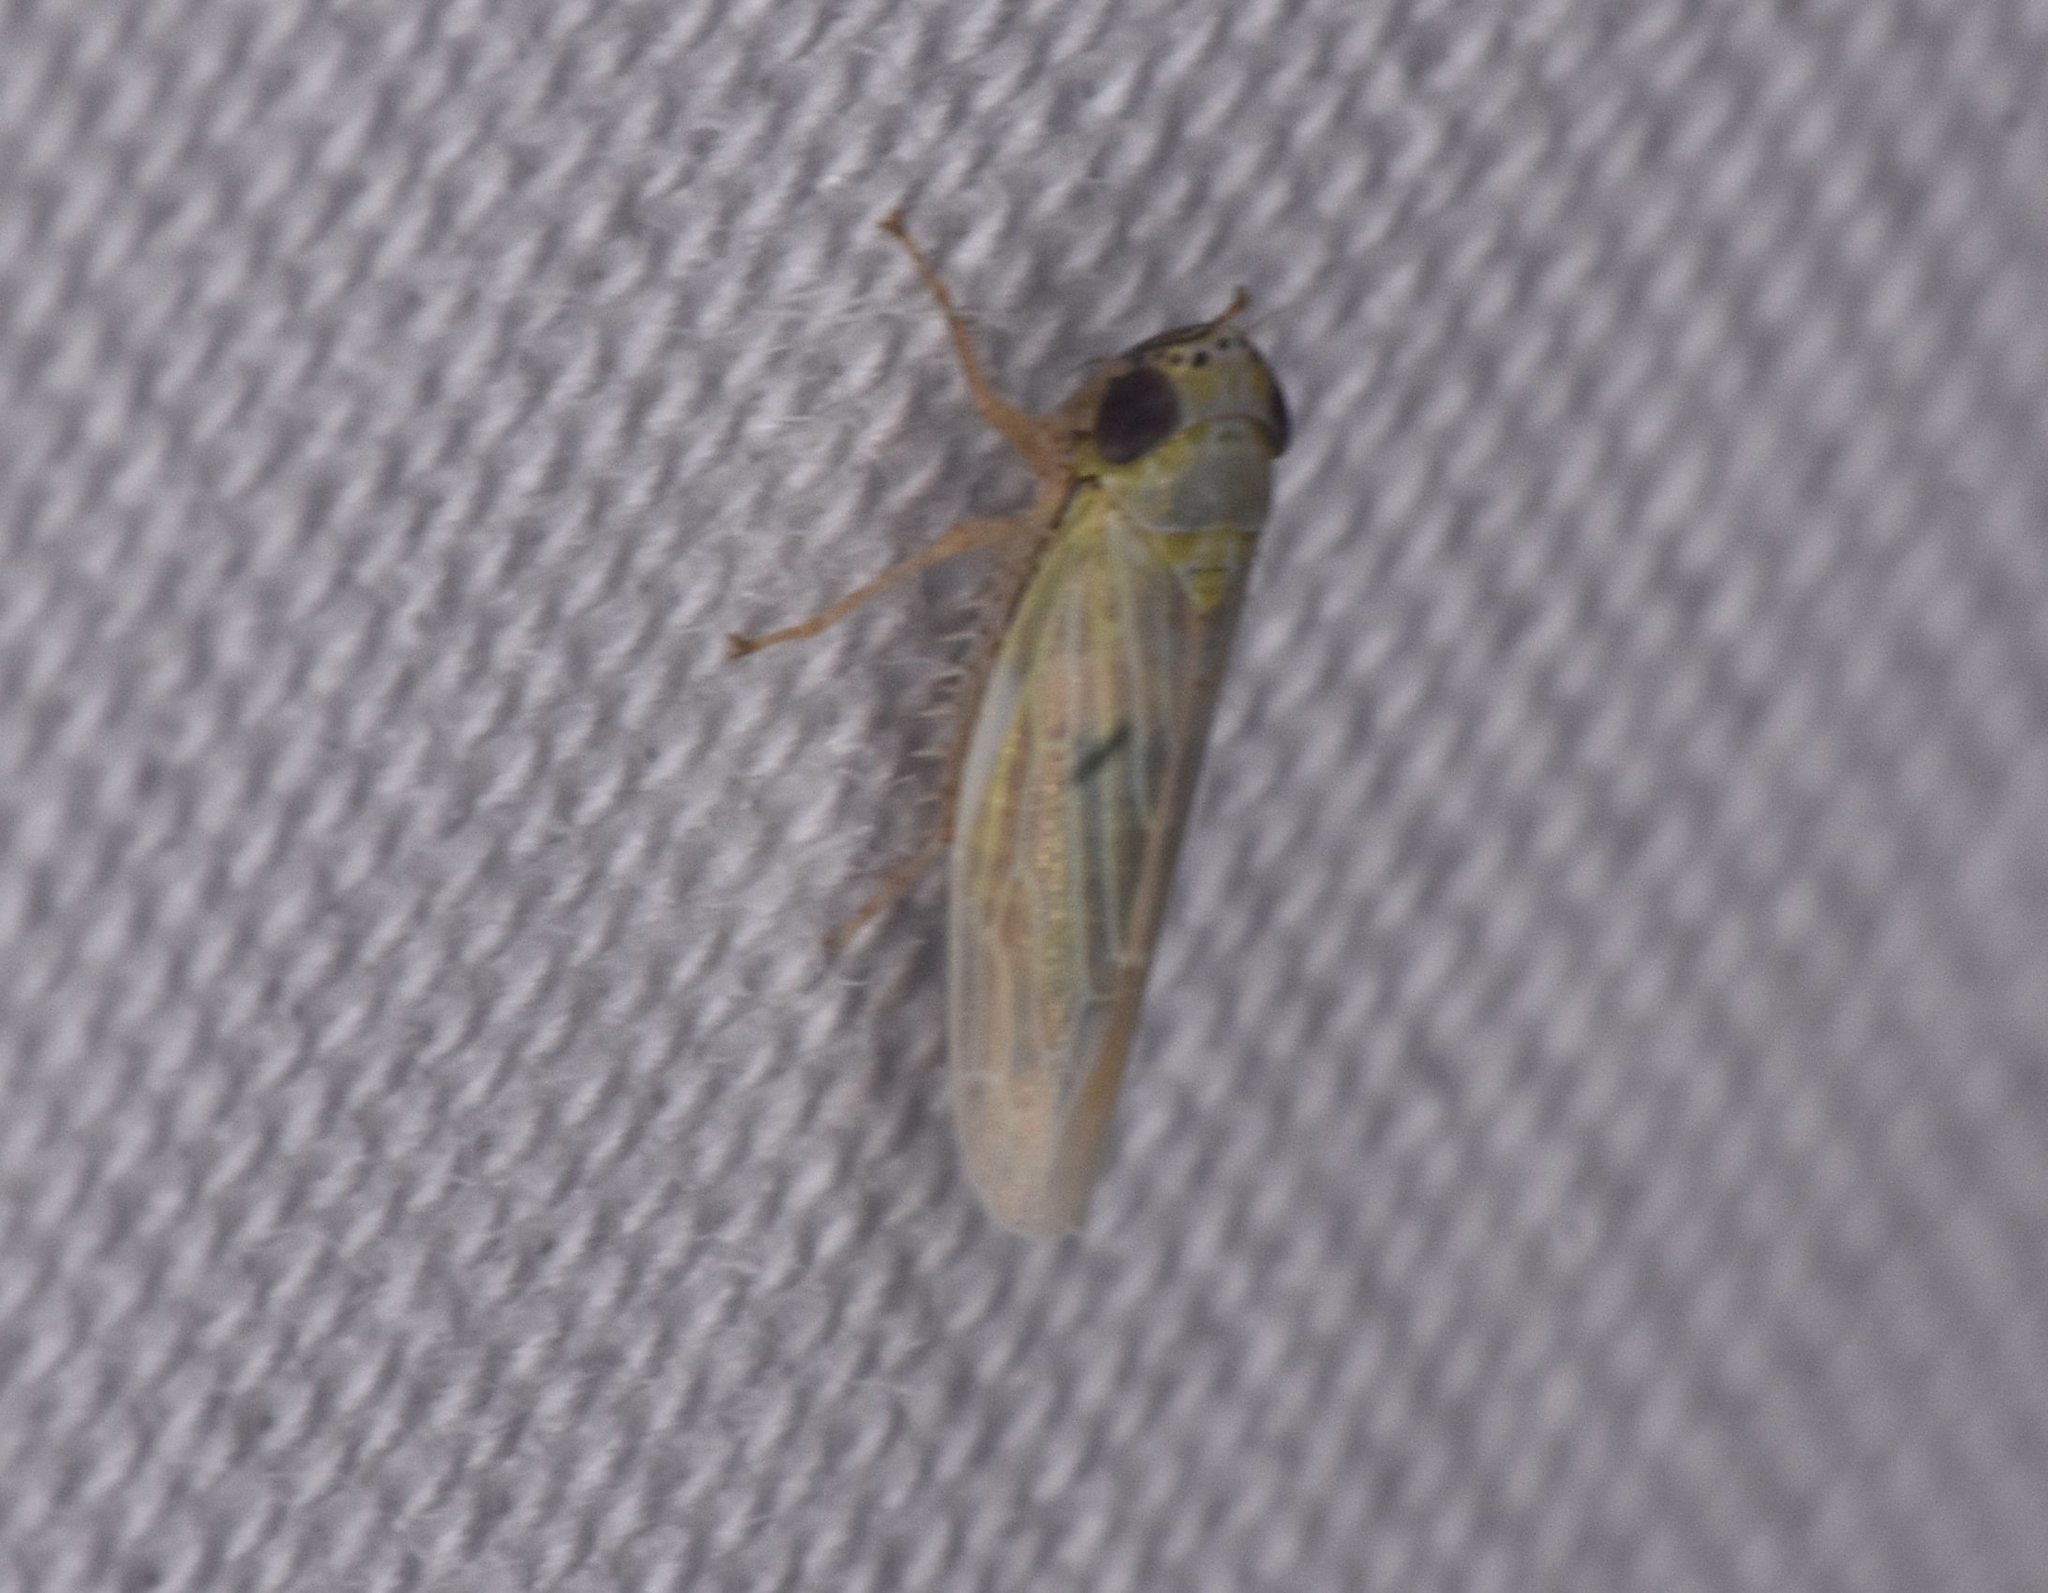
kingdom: Animalia
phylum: Arthropoda
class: Insecta
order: Hemiptera
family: Cicadellidae
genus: Graminella
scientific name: Graminella nigrifrons
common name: Blackfaced leafhopper
